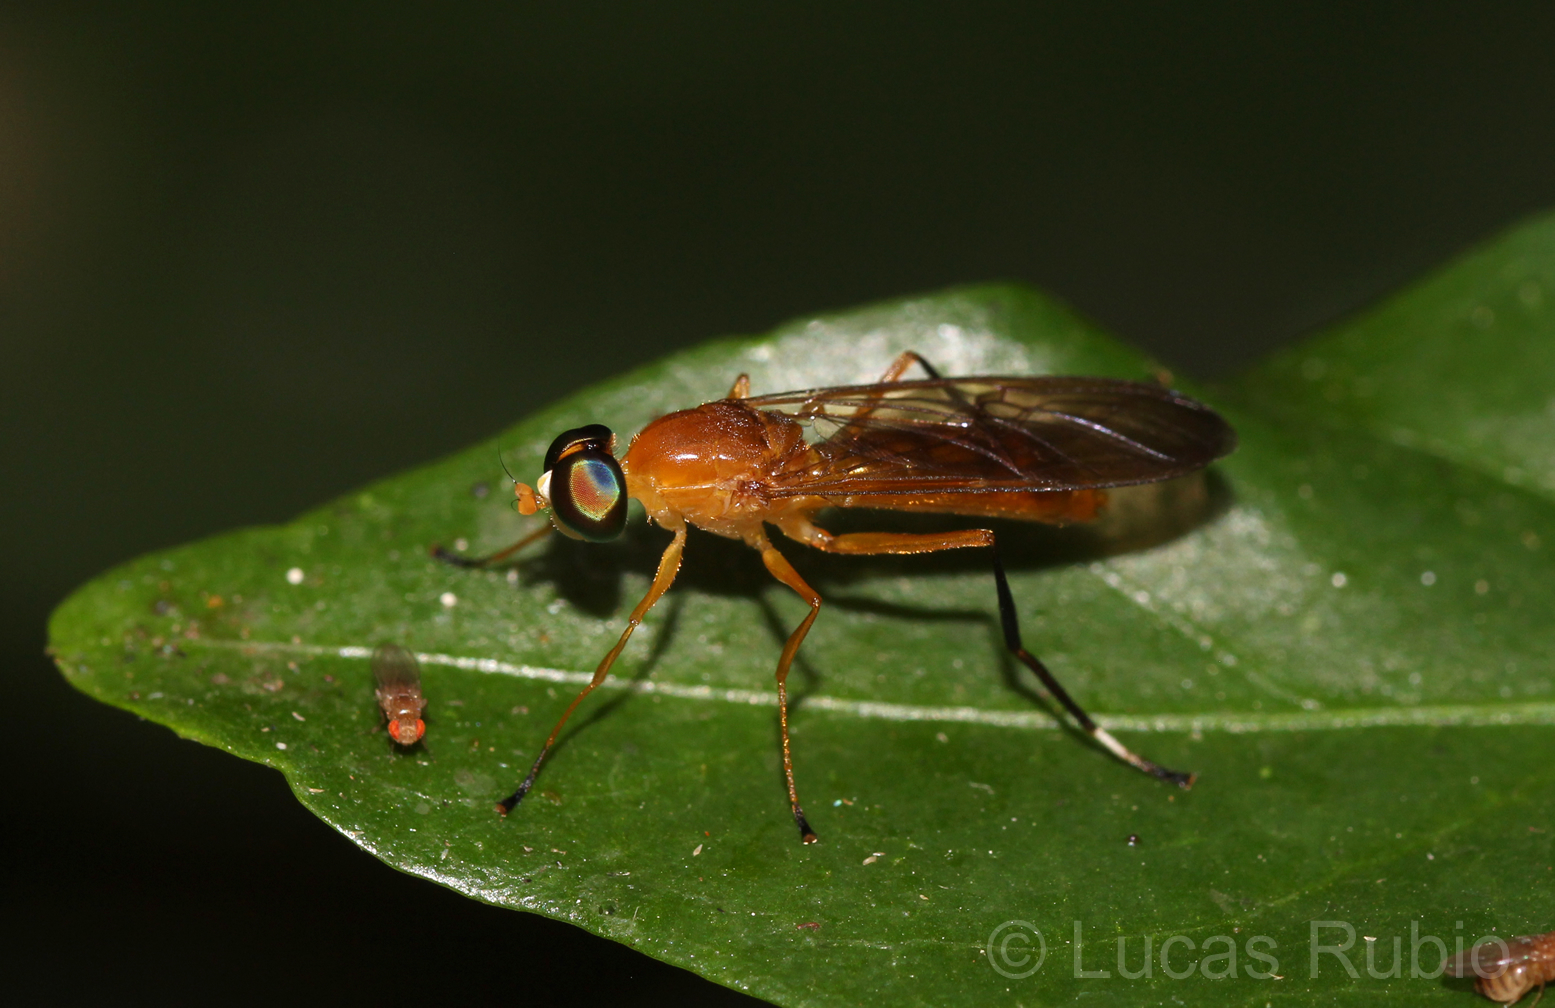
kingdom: Animalia
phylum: Arthropoda
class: Insecta
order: Diptera
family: Stratiomyidae
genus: Ptecticus
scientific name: Ptecticus testaceus
